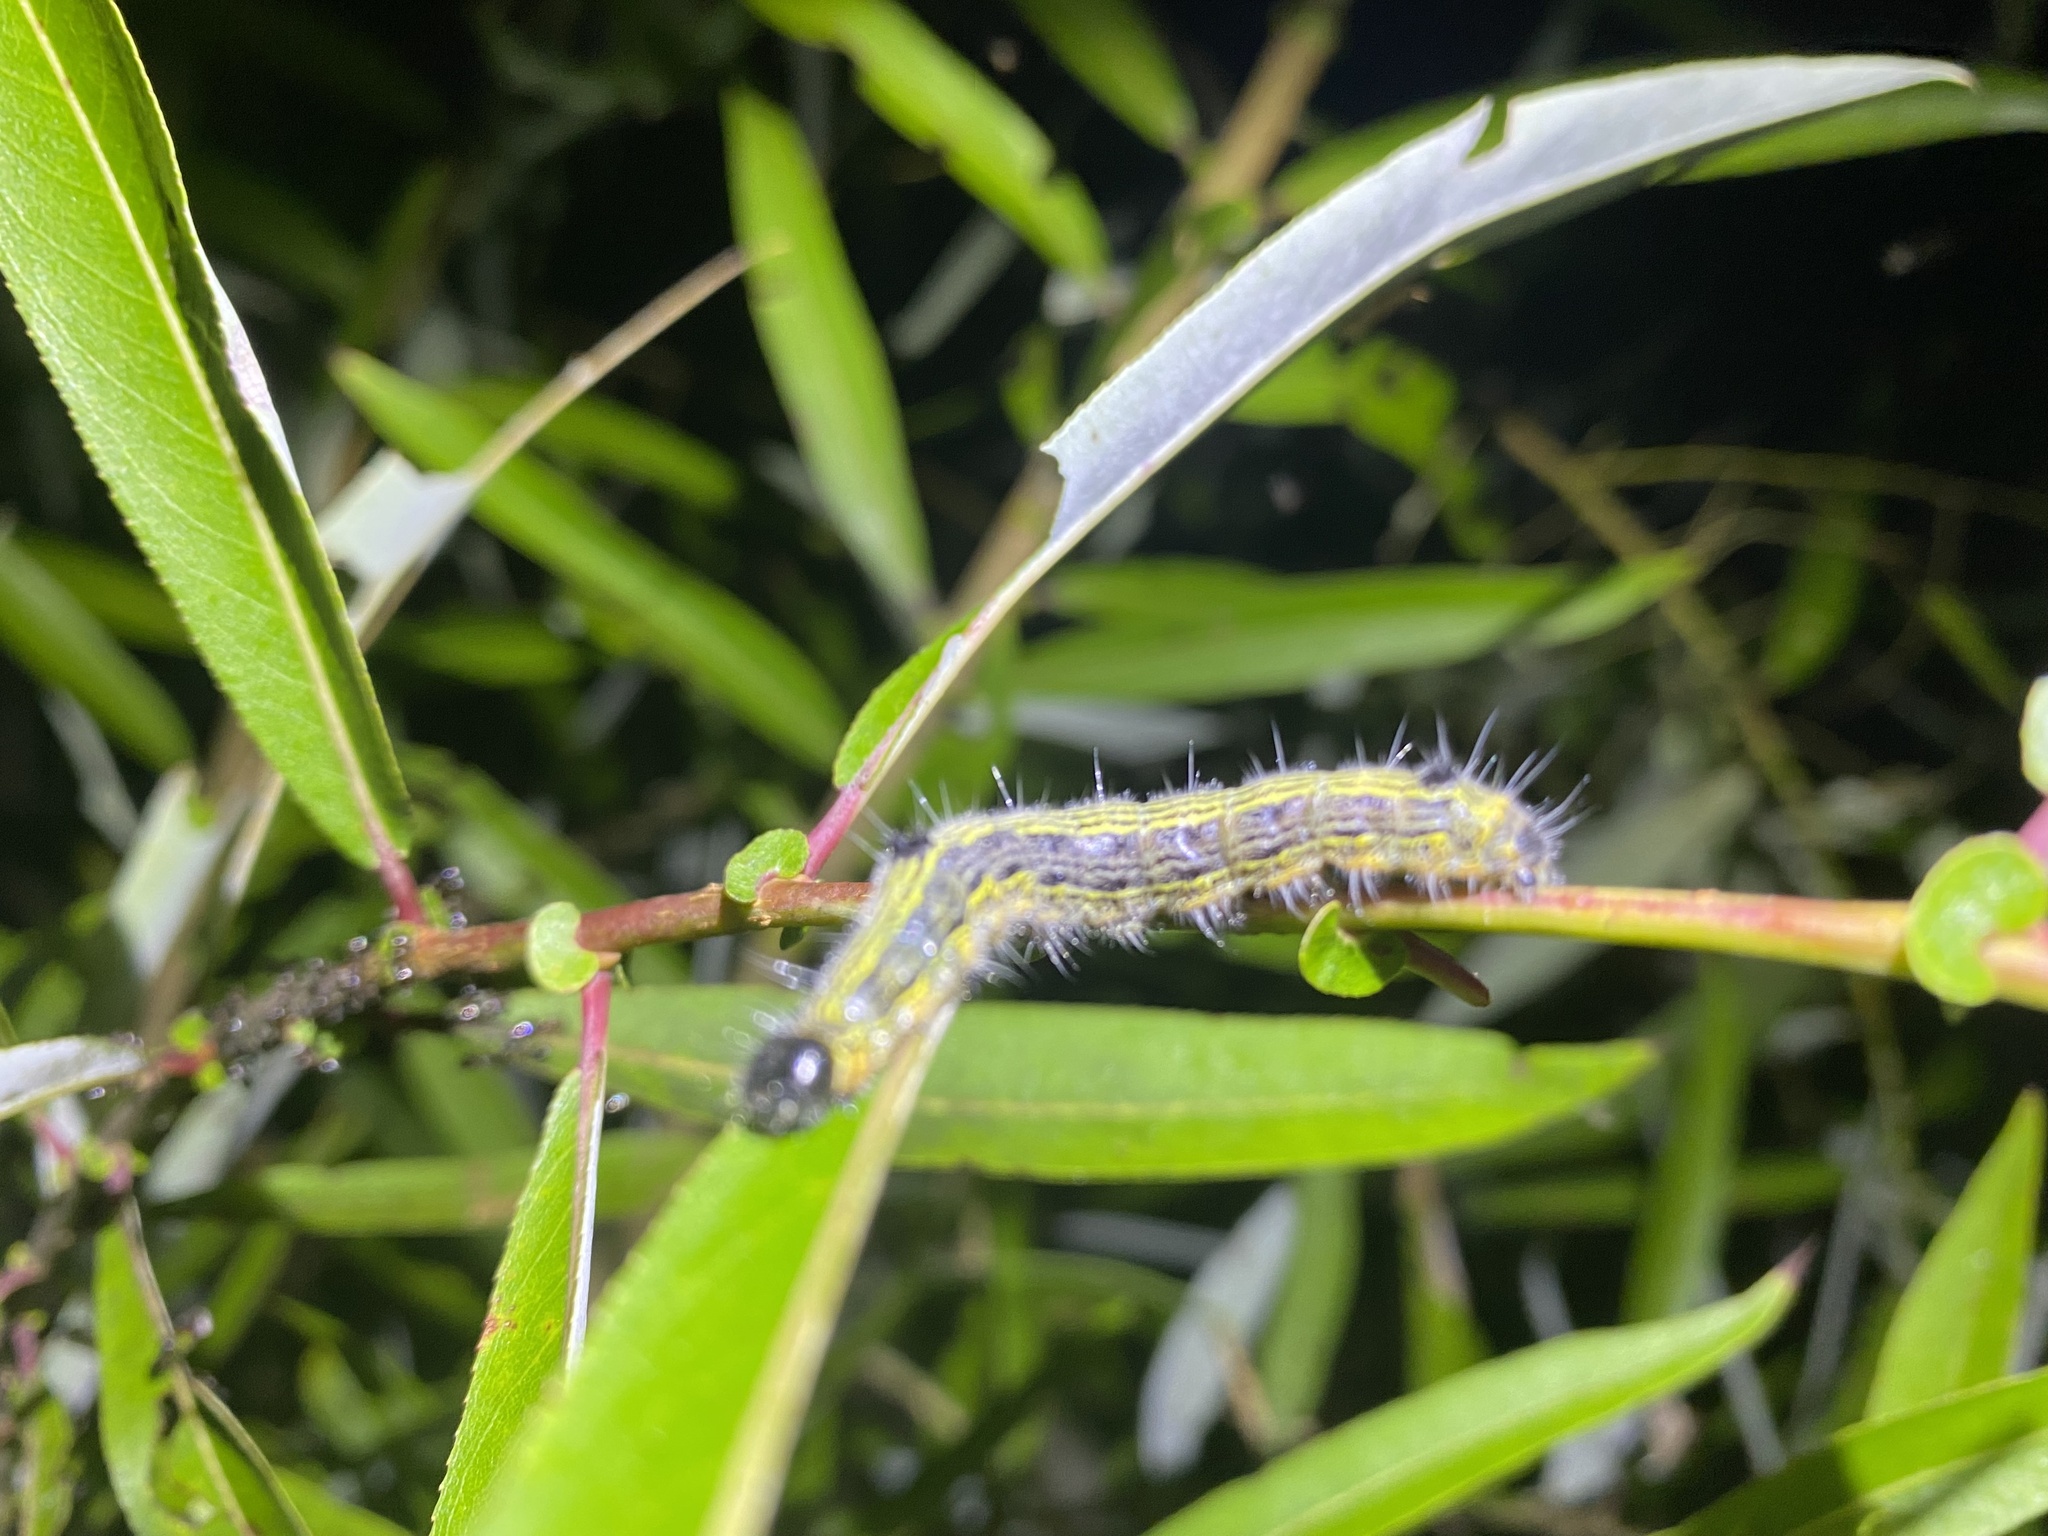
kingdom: Animalia
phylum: Arthropoda
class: Insecta
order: Lepidoptera
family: Notodontidae
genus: Clostera
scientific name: Clostera inclusa
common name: Angle-lined prominent
